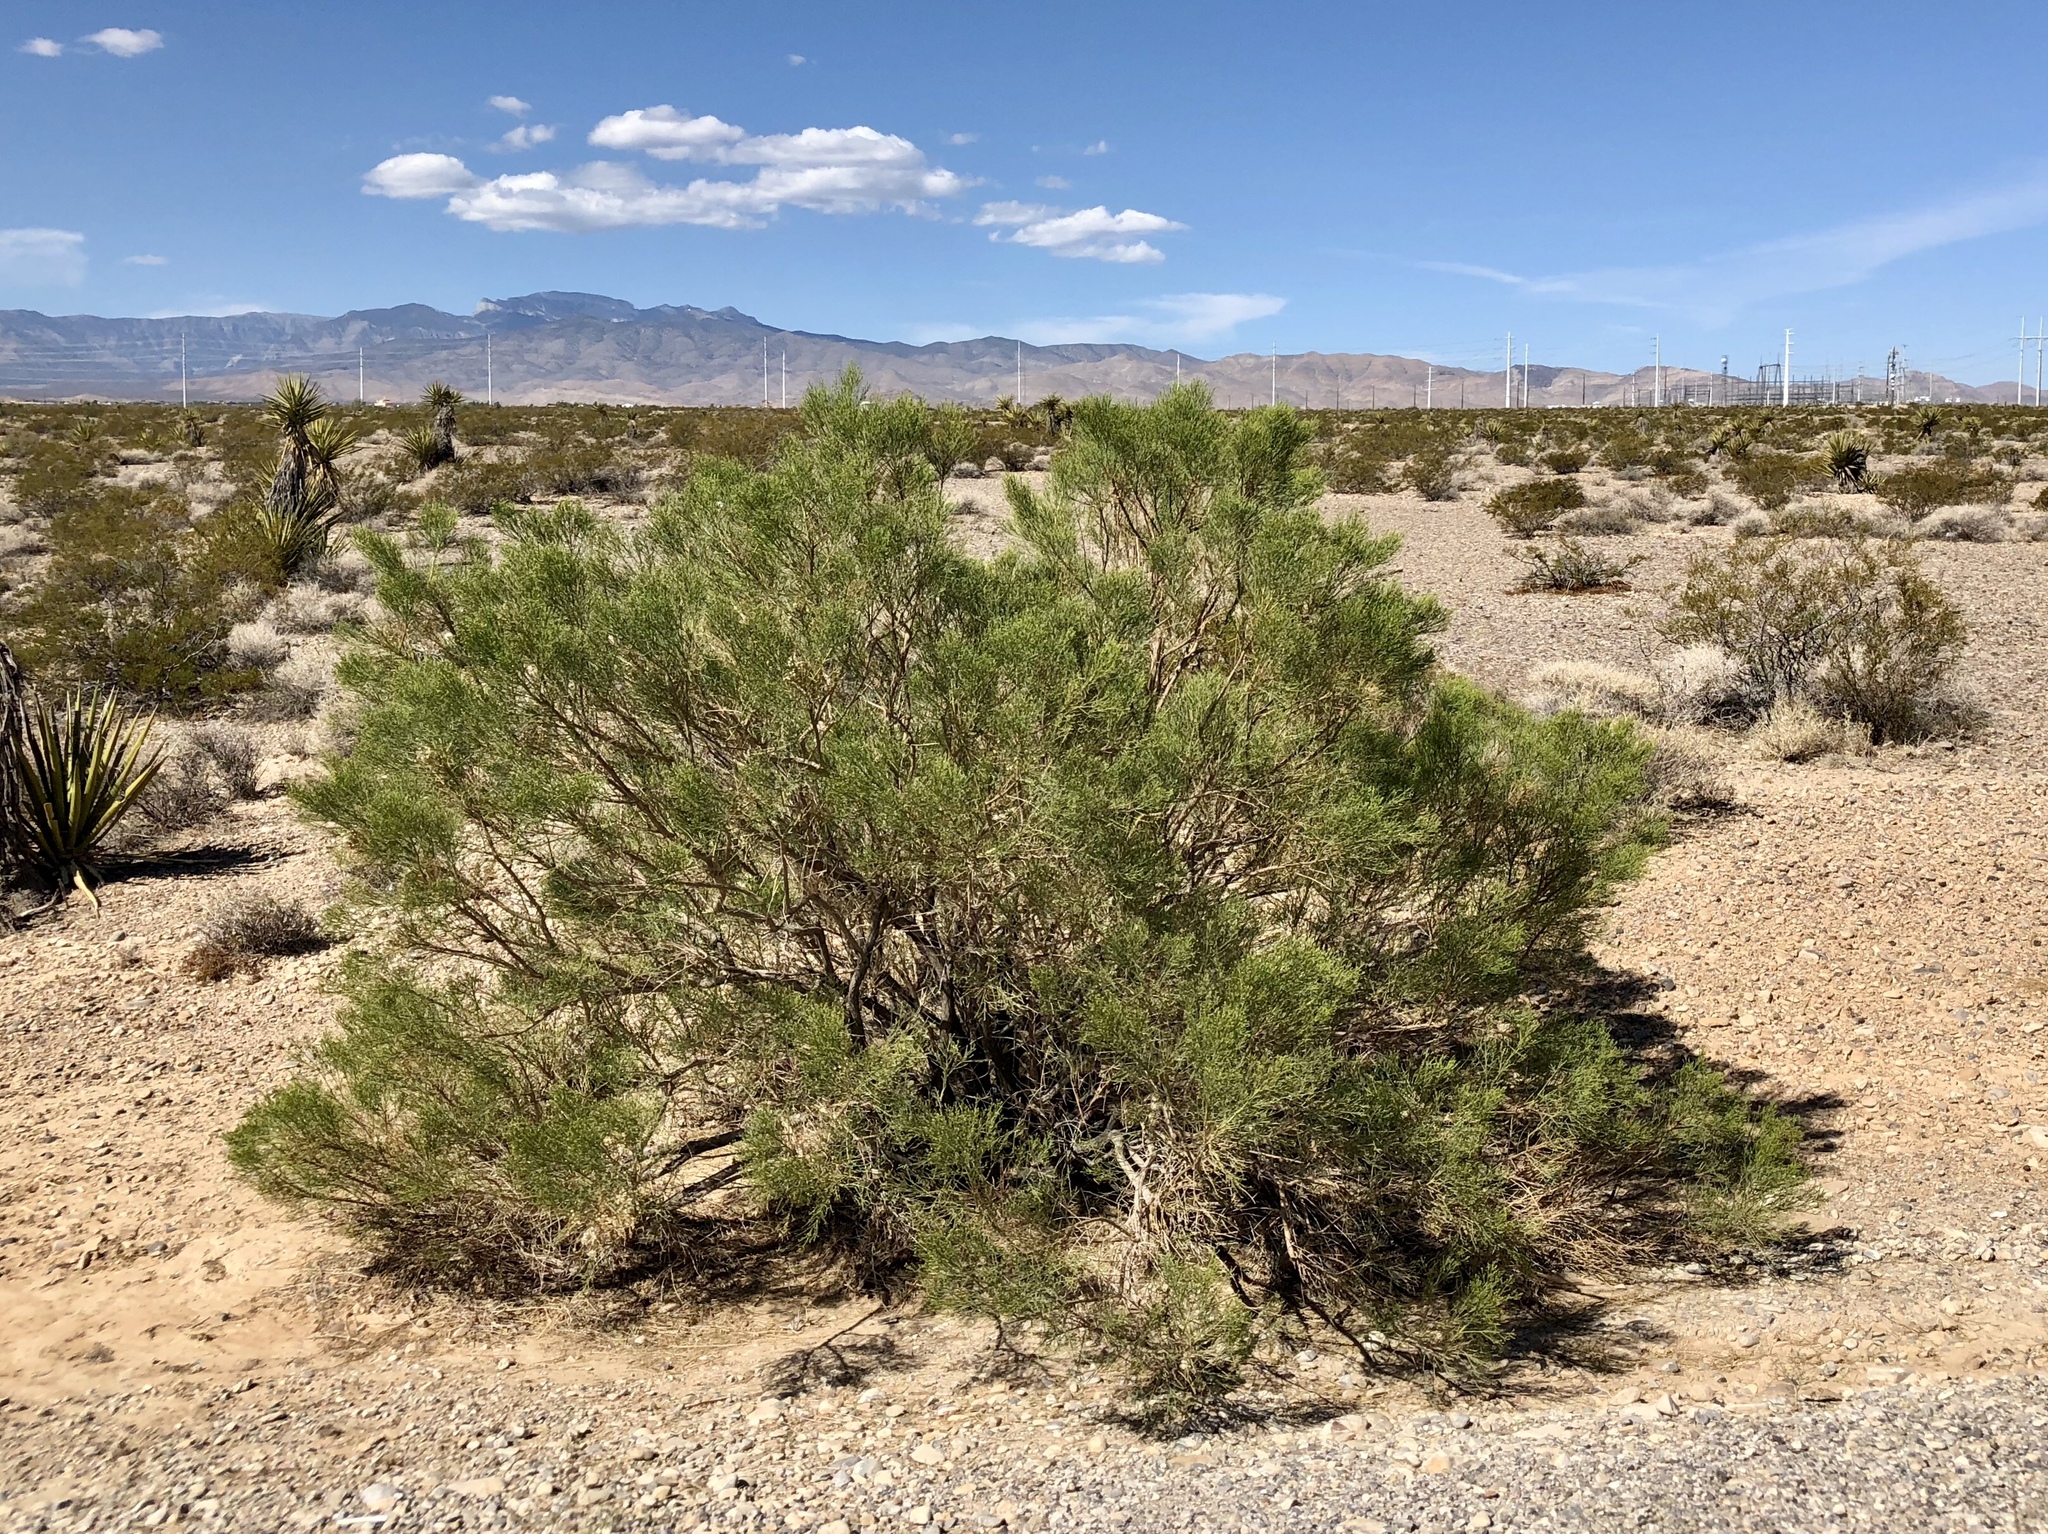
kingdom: Plantae
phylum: Tracheophyta
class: Magnoliopsida
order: Asterales
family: Asteraceae
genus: Baccharis
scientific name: Baccharis sarothroides
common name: Desert-broom
